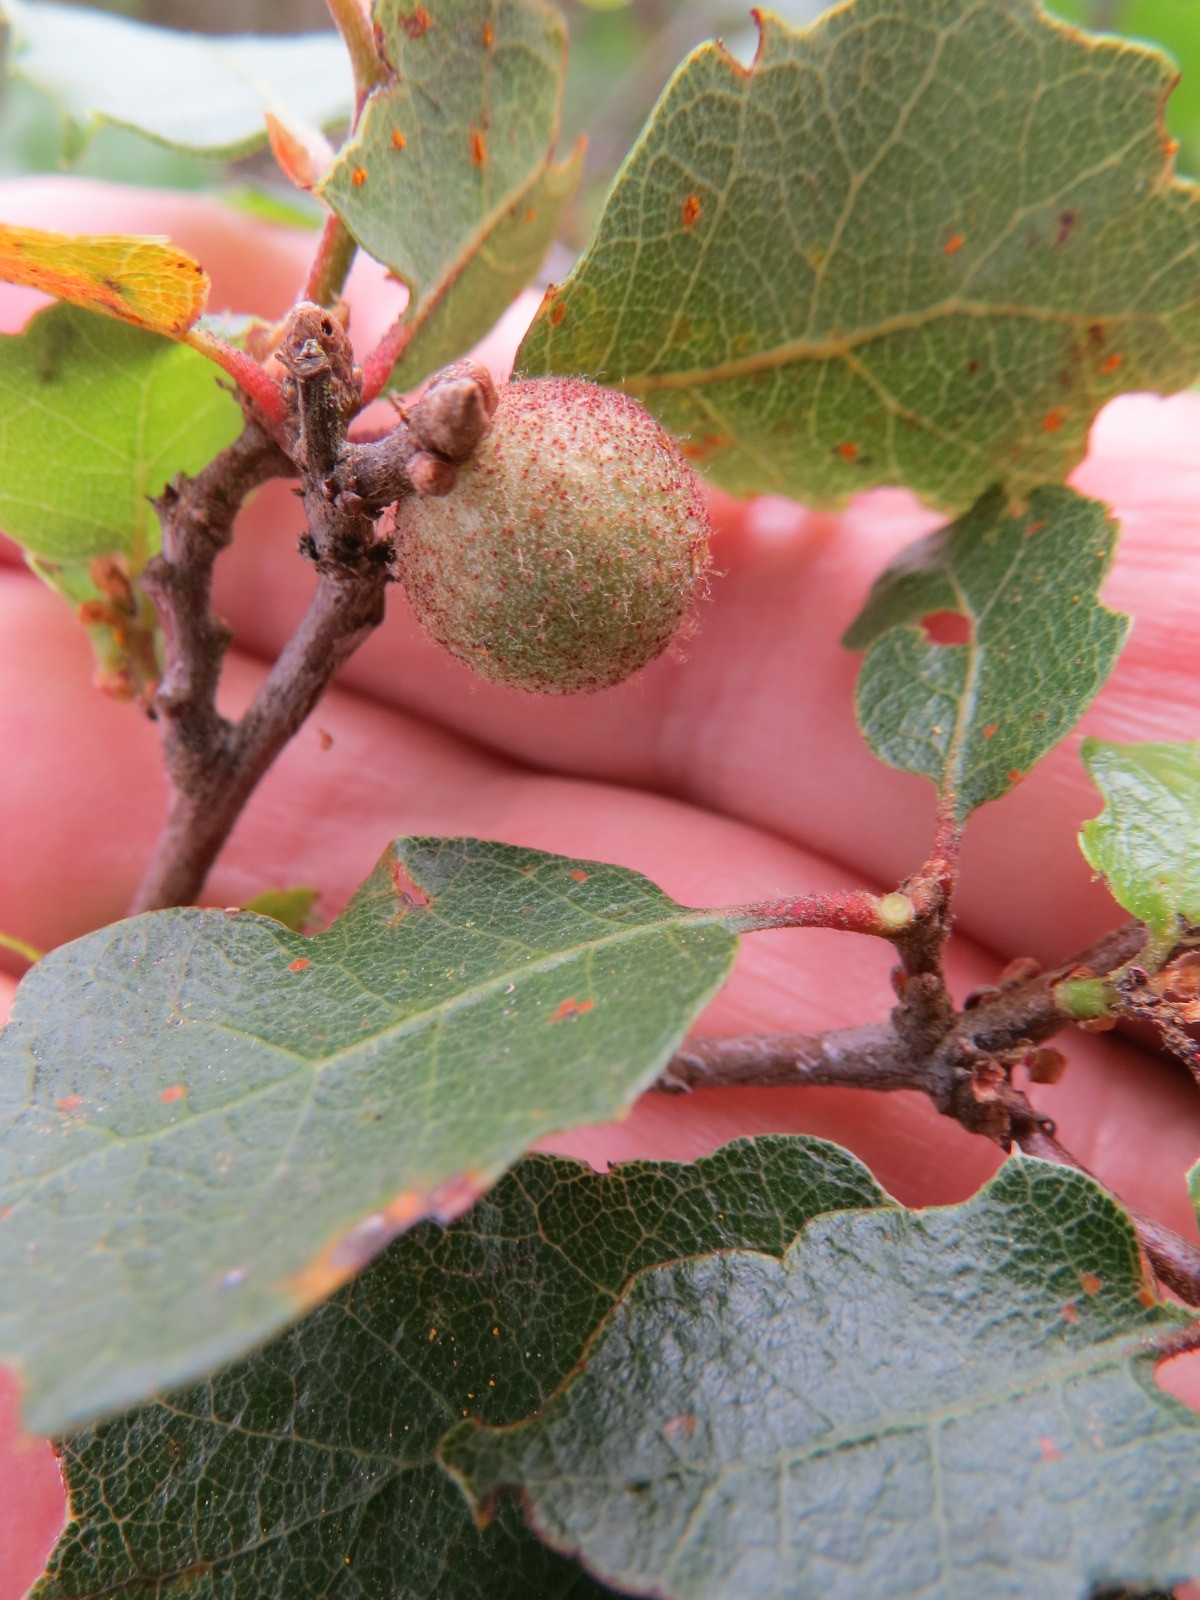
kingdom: Animalia
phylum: Arthropoda
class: Insecta
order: Hymenoptera
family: Cynipidae
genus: Burnettweldia
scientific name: Burnettweldia
